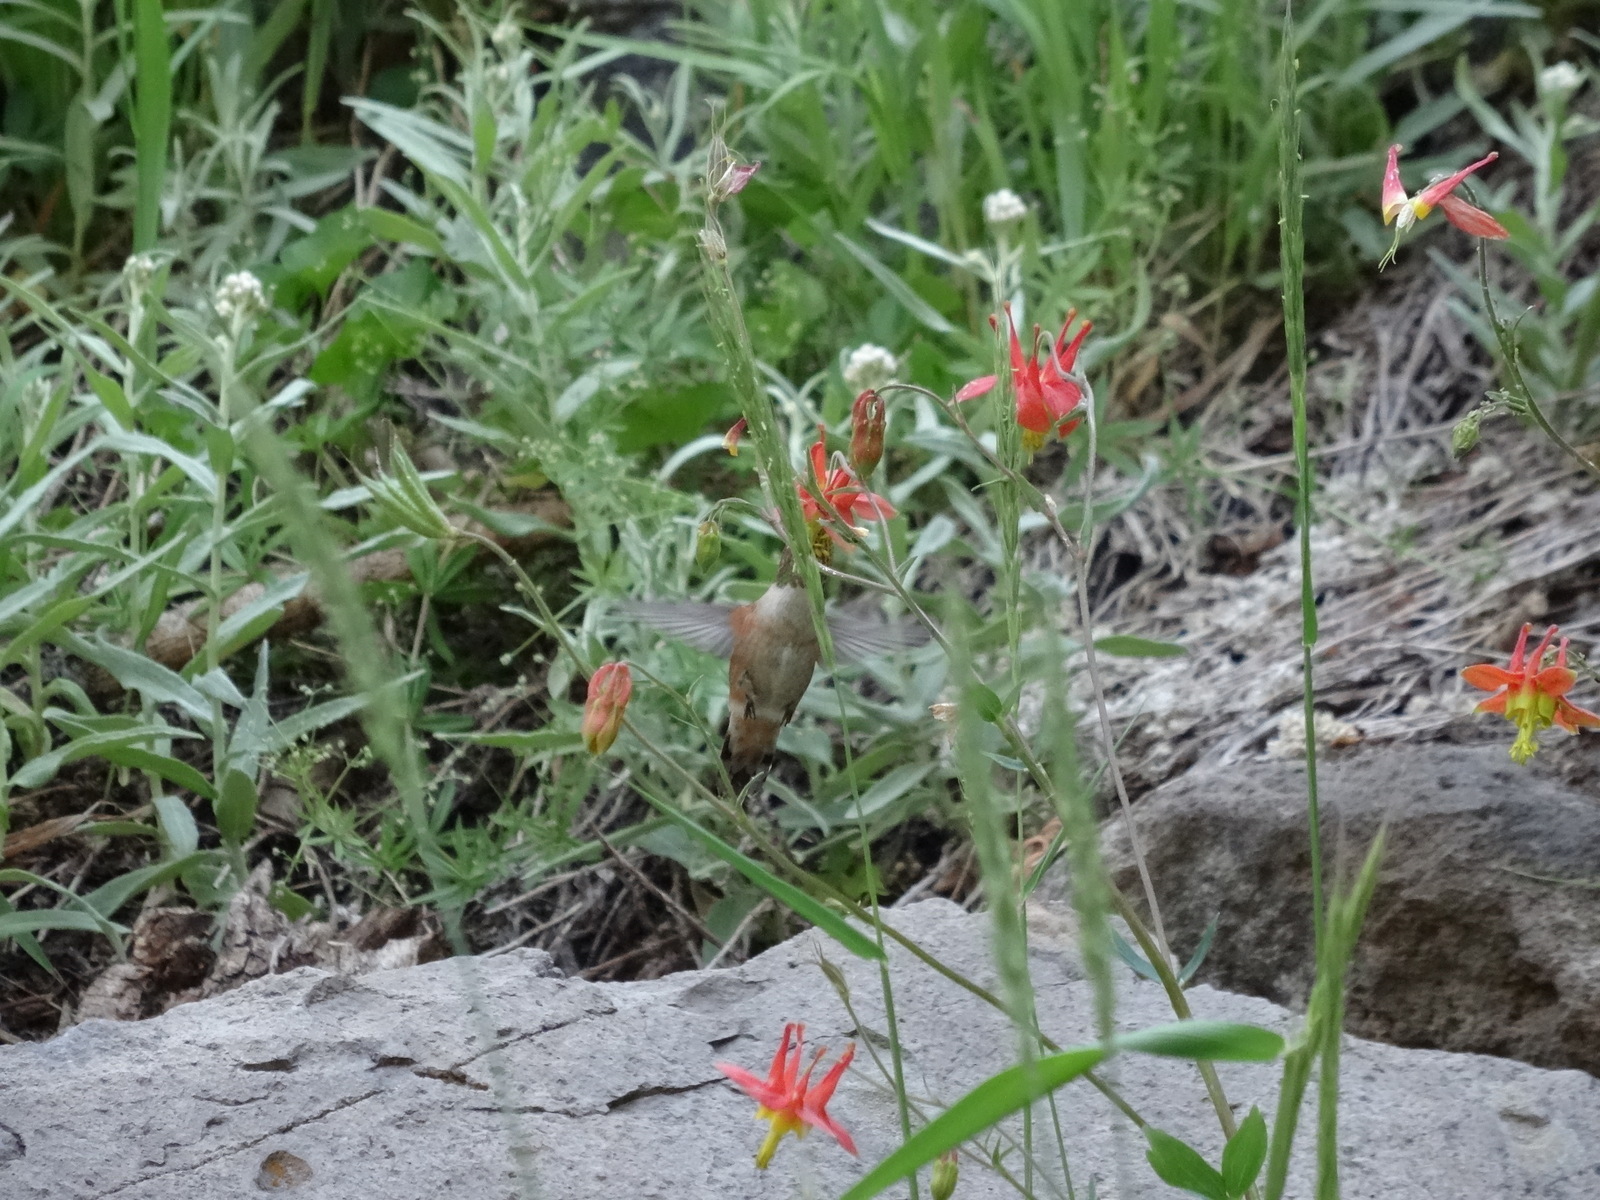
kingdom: Animalia
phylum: Chordata
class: Aves
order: Apodiformes
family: Trochilidae
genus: Selasphorus
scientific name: Selasphorus rufus
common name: Rufous hummingbird
